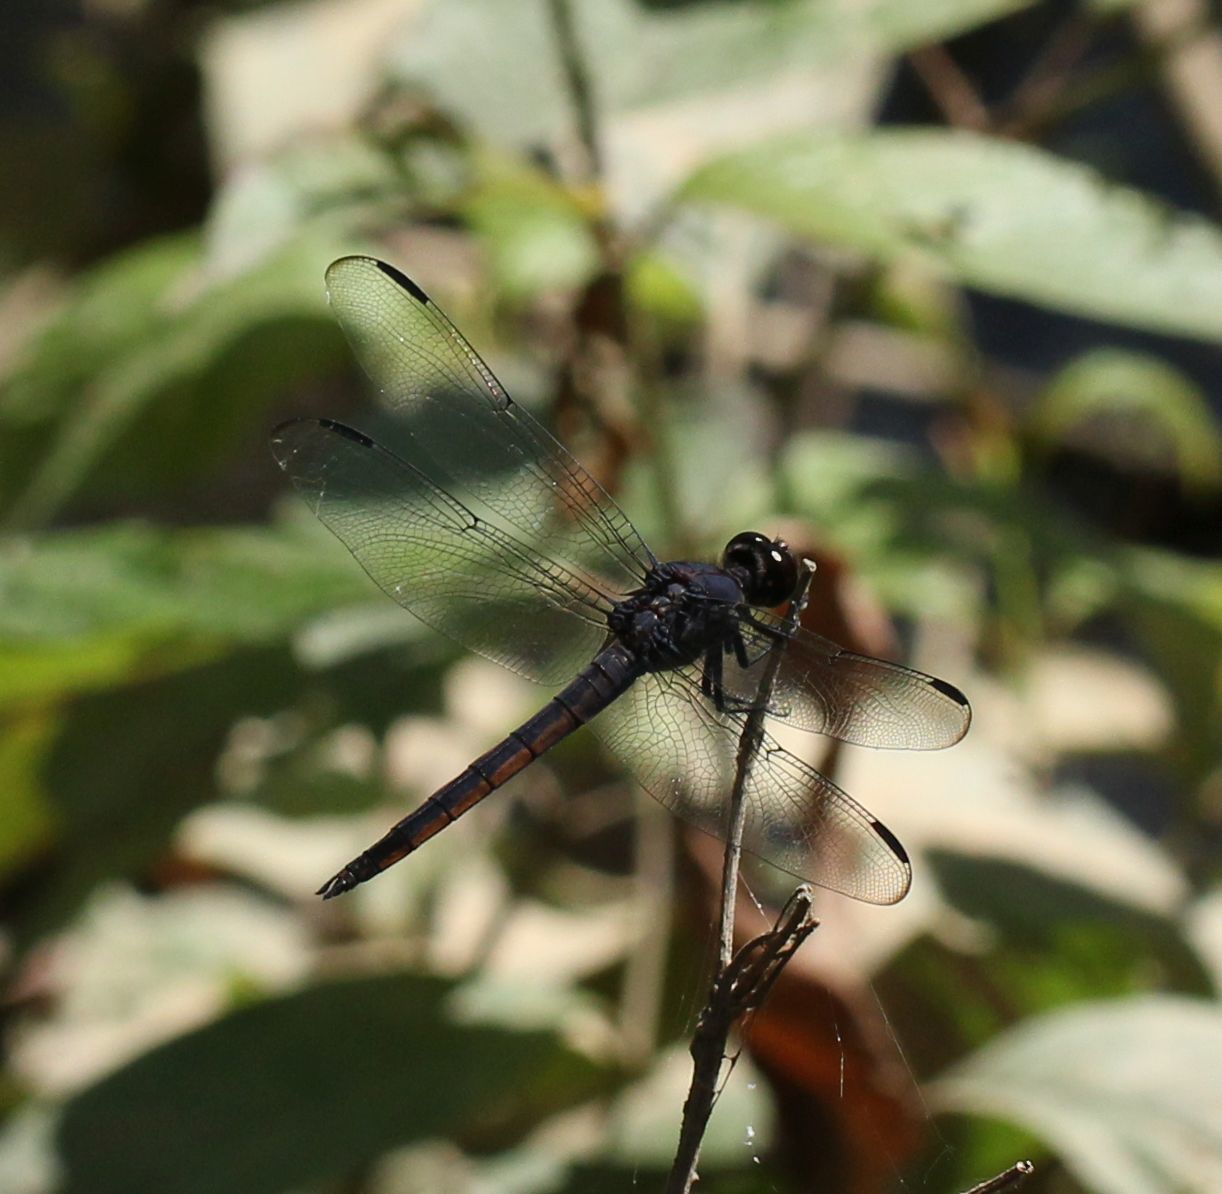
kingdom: Animalia
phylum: Arthropoda
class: Insecta
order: Odonata
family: Libellulidae
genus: Libellula
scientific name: Libellula incesta
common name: Slaty skimmer
